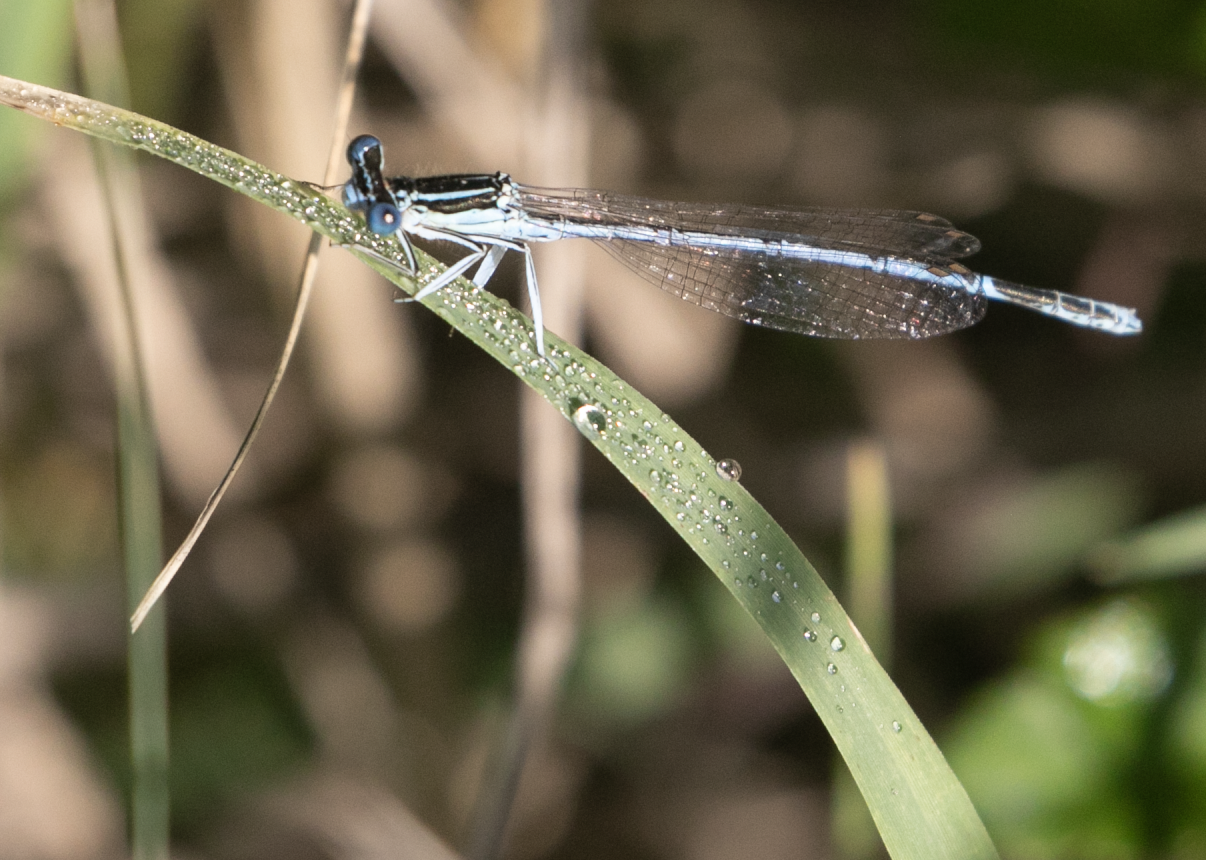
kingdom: Animalia
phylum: Arthropoda
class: Insecta
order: Odonata
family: Platycnemididae
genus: Platycnemis
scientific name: Platycnemis pennipes
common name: White-legged damselfly
